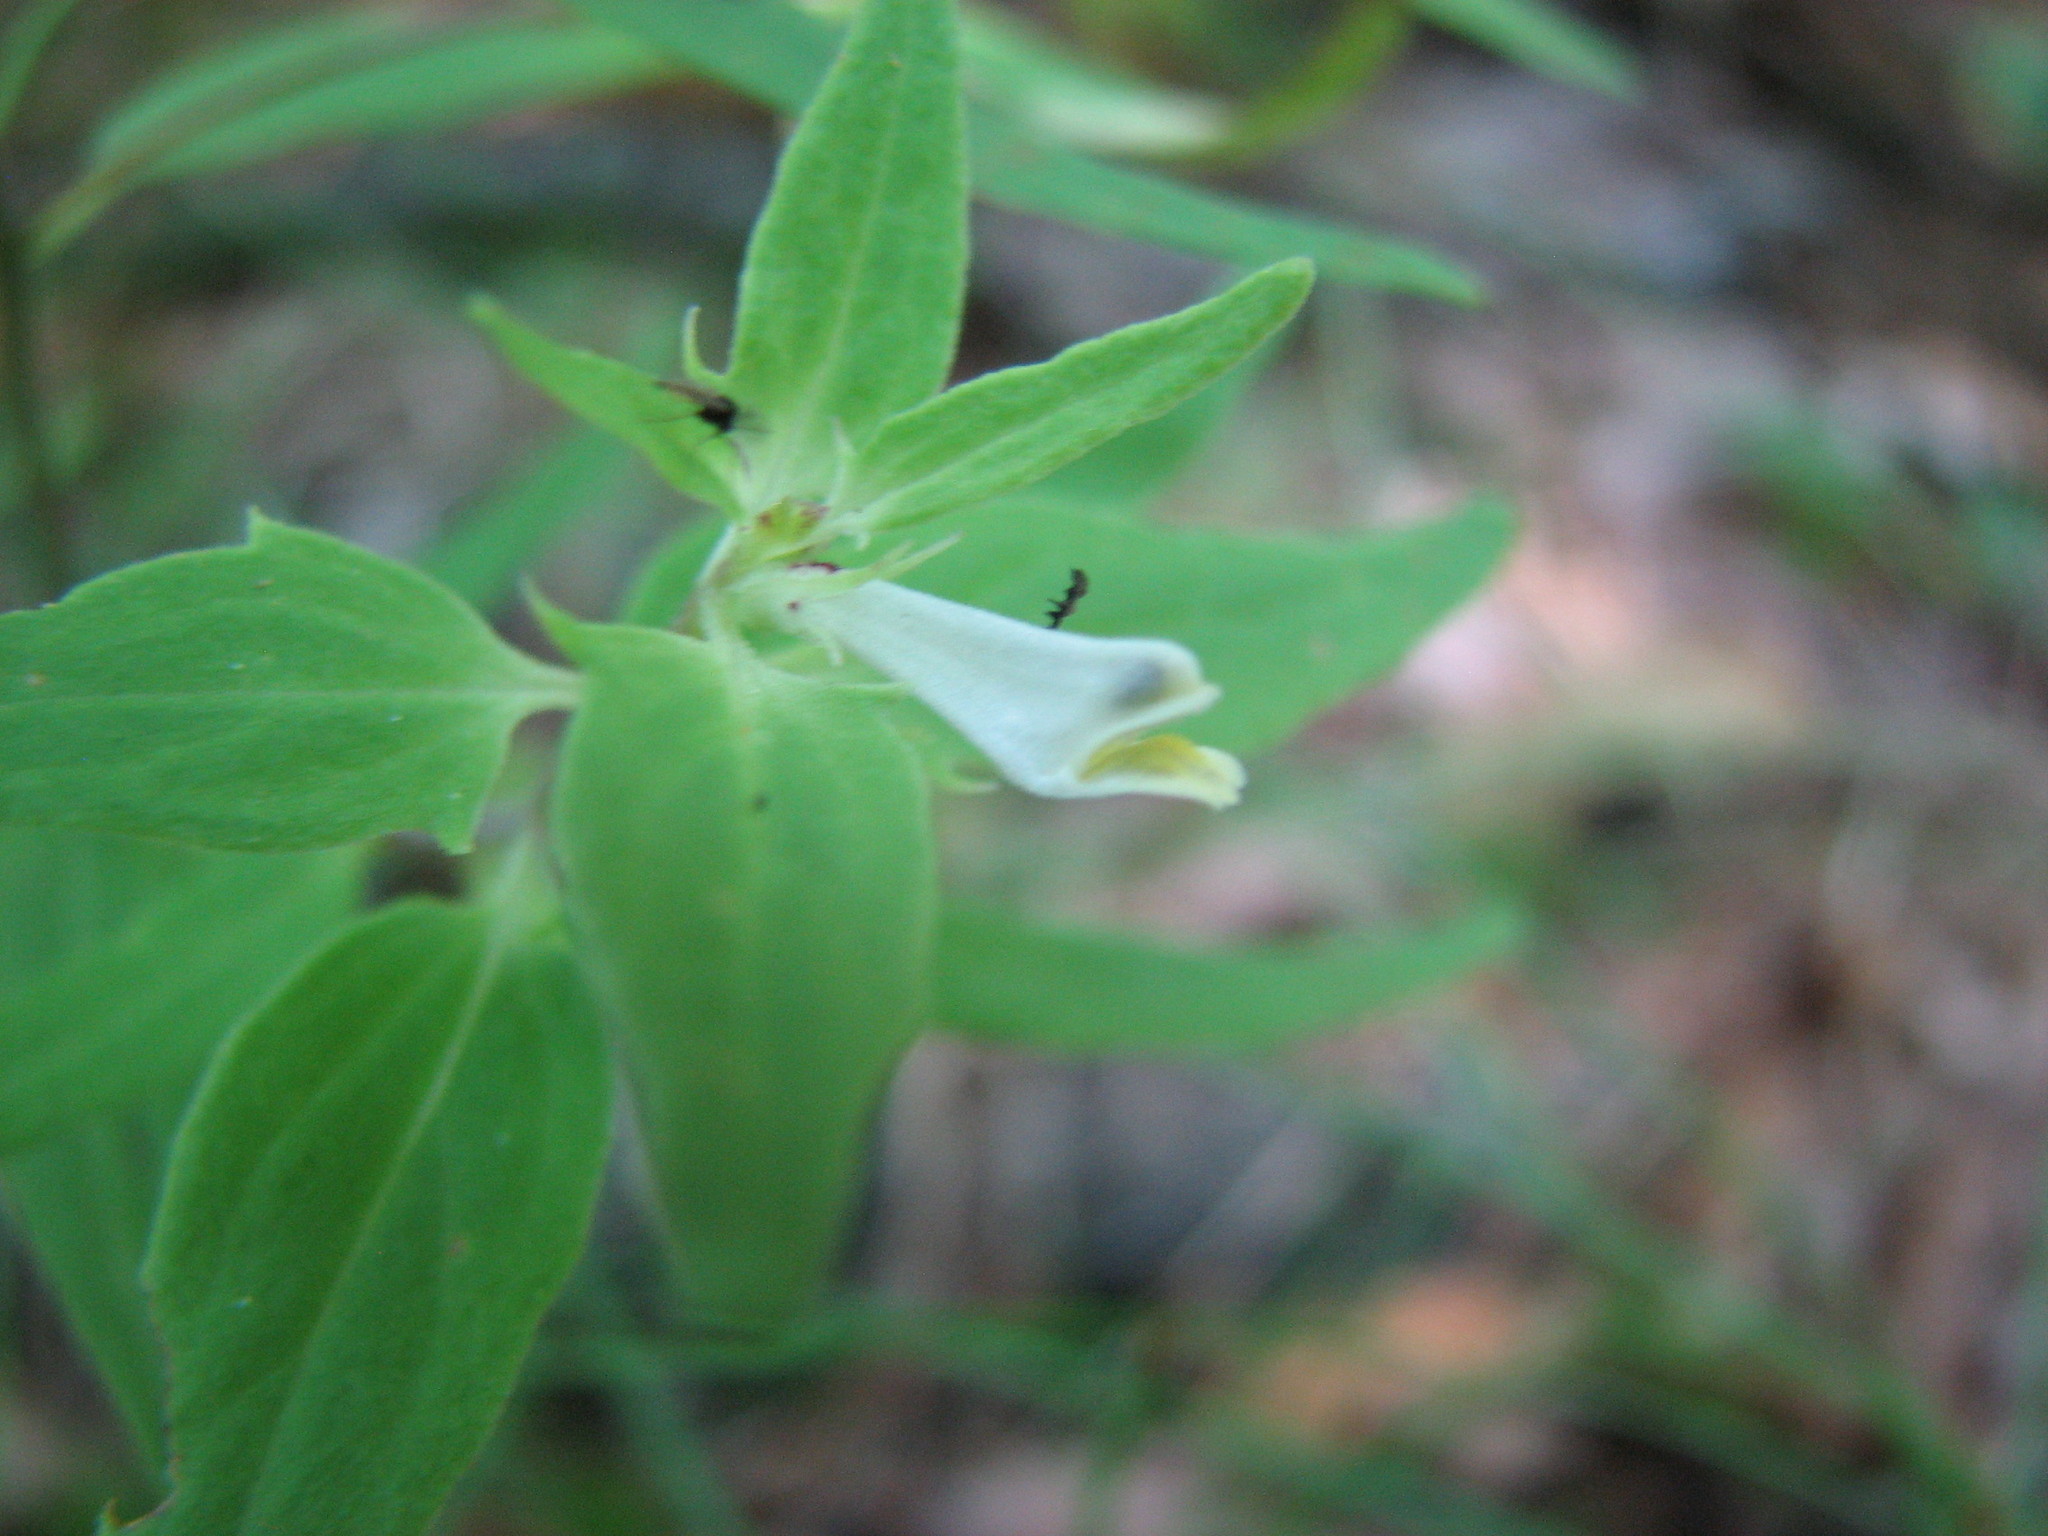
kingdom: Plantae
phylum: Tracheophyta
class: Magnoliopsida
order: Lamiales
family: Orobanchaceae
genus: Melampyrum
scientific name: Melampyrum lineare
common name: American cow-wheat
